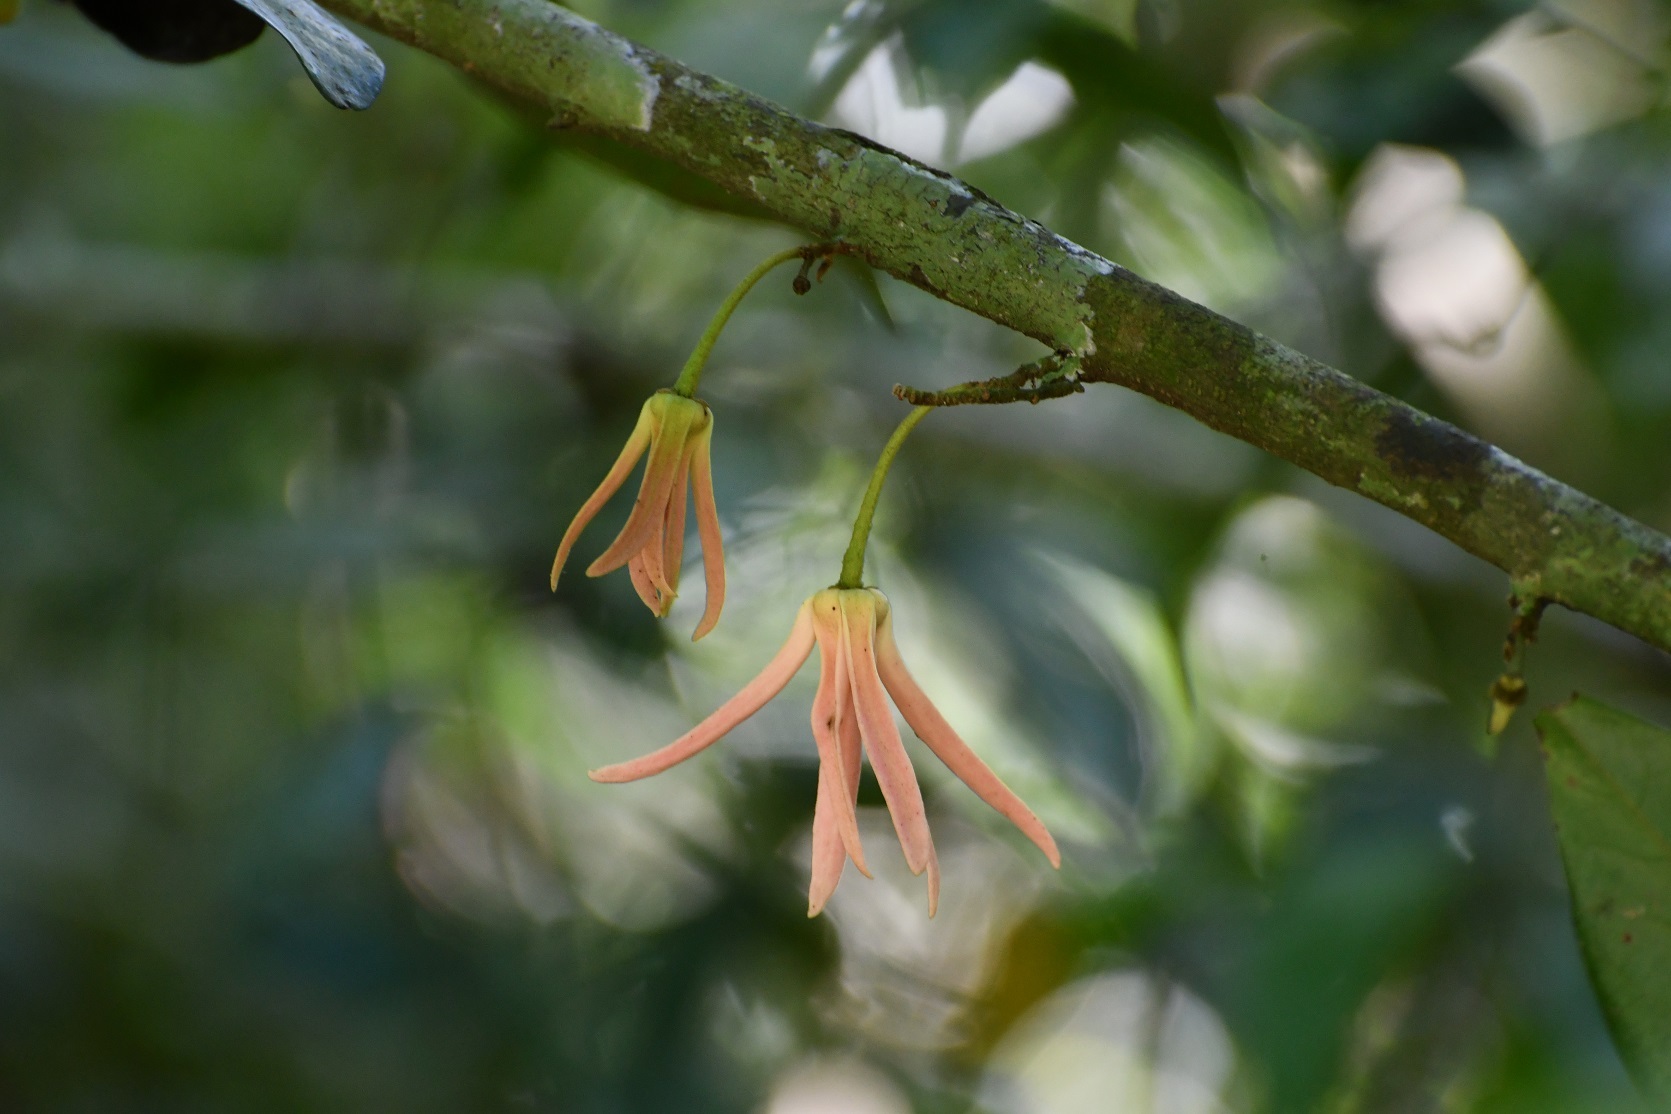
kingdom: Plantae
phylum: Tracheophyta
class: Magnoliopsida
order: Magnoliales
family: Annonaceae
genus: Stenanona
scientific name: Stenanona migueliana
